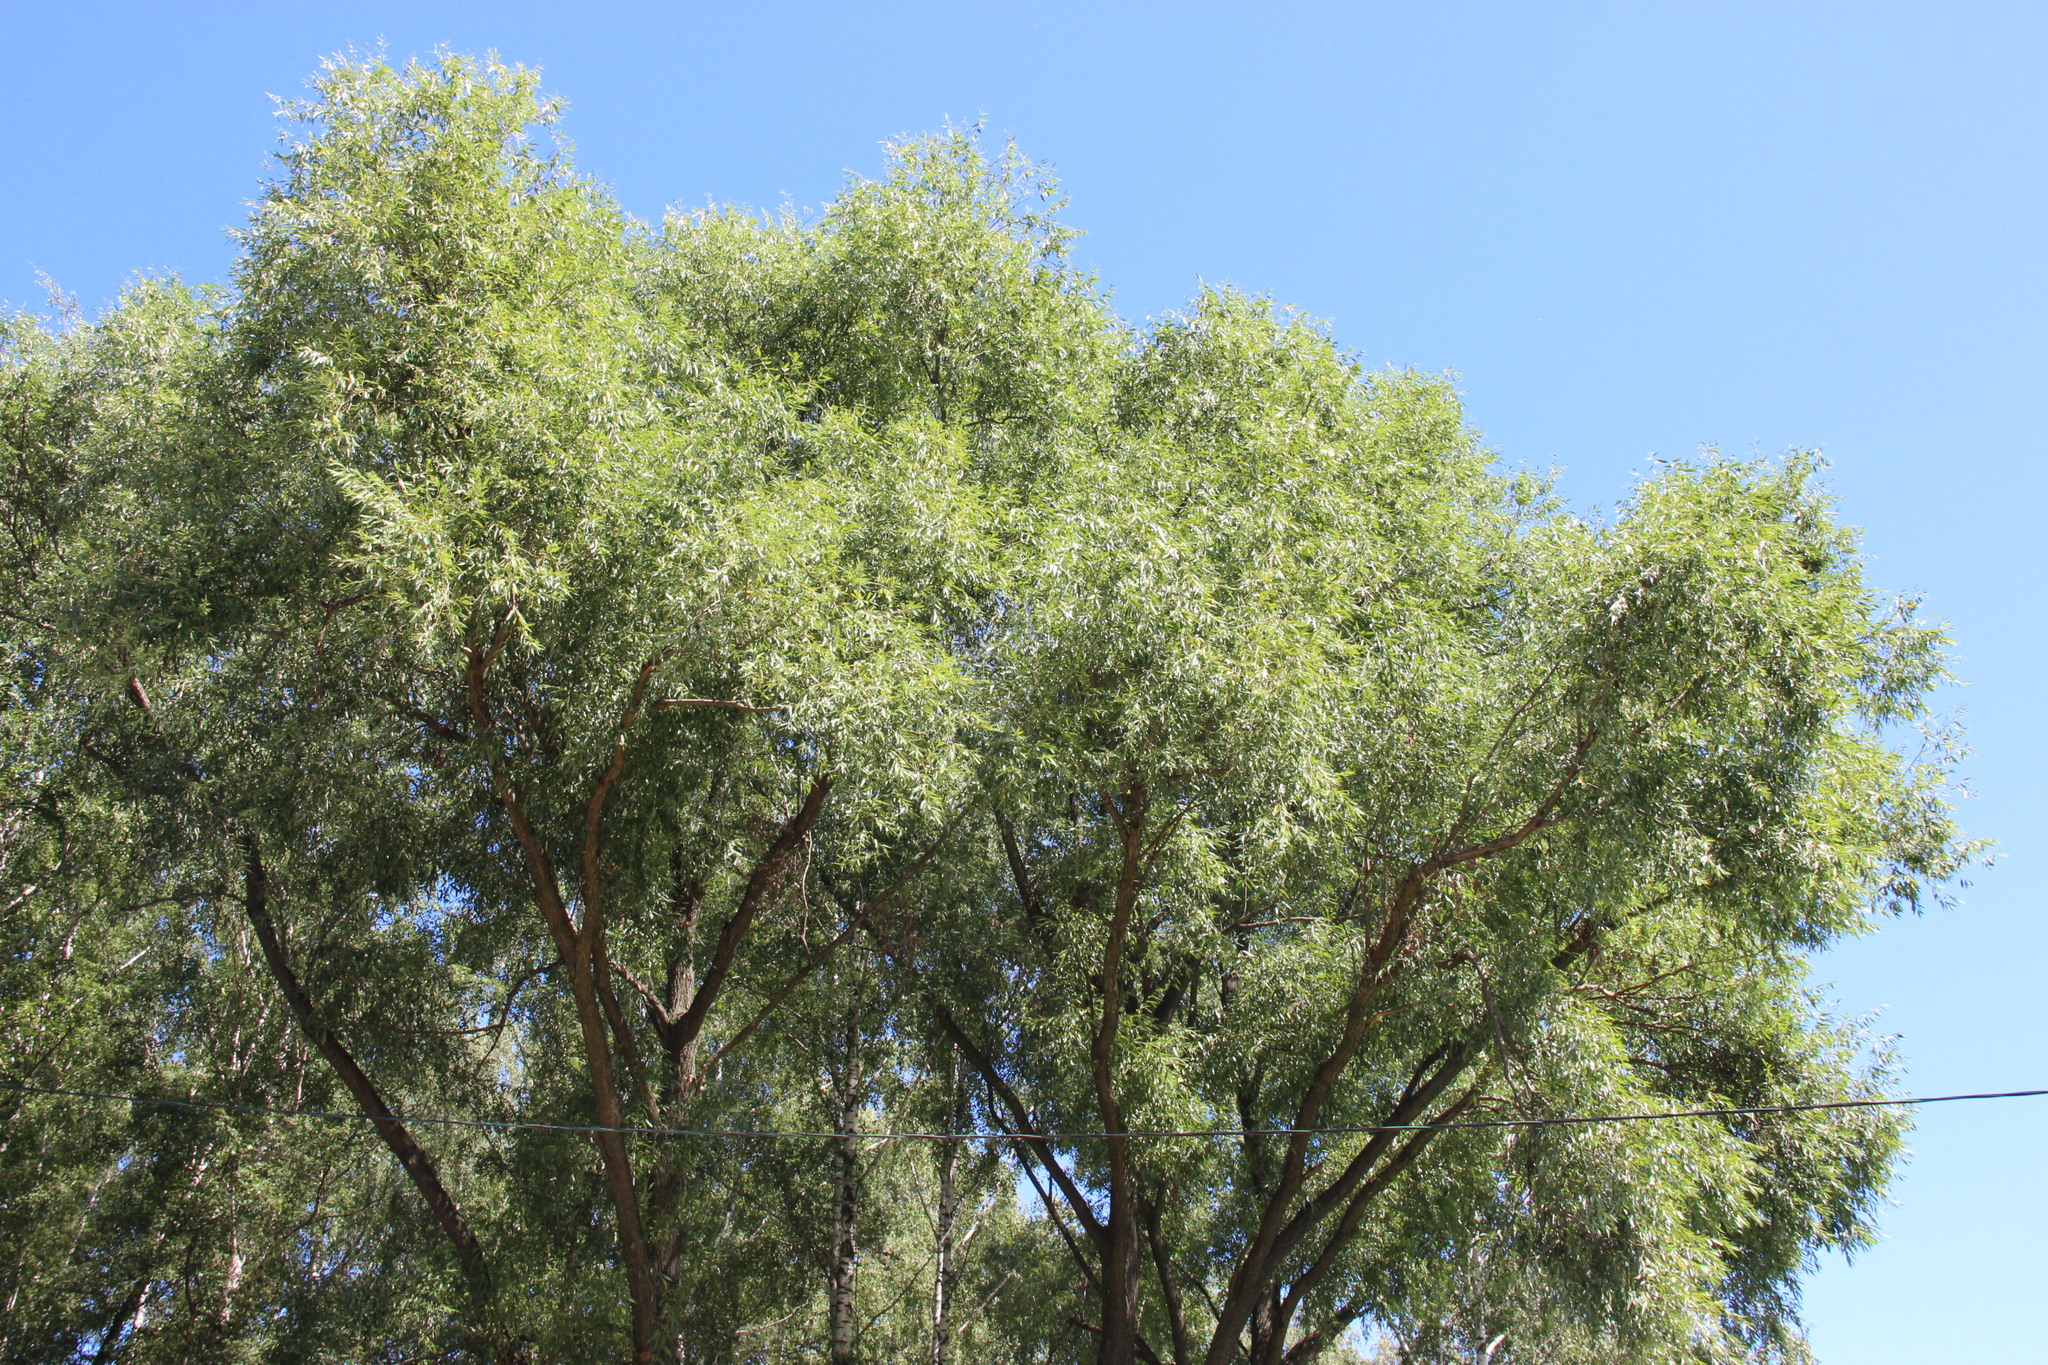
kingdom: Plantae
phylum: Tracheophyta
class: Magnoliopsida
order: Malpighiales
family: Salicaceae
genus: Salix
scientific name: Salix alba
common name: White willow
